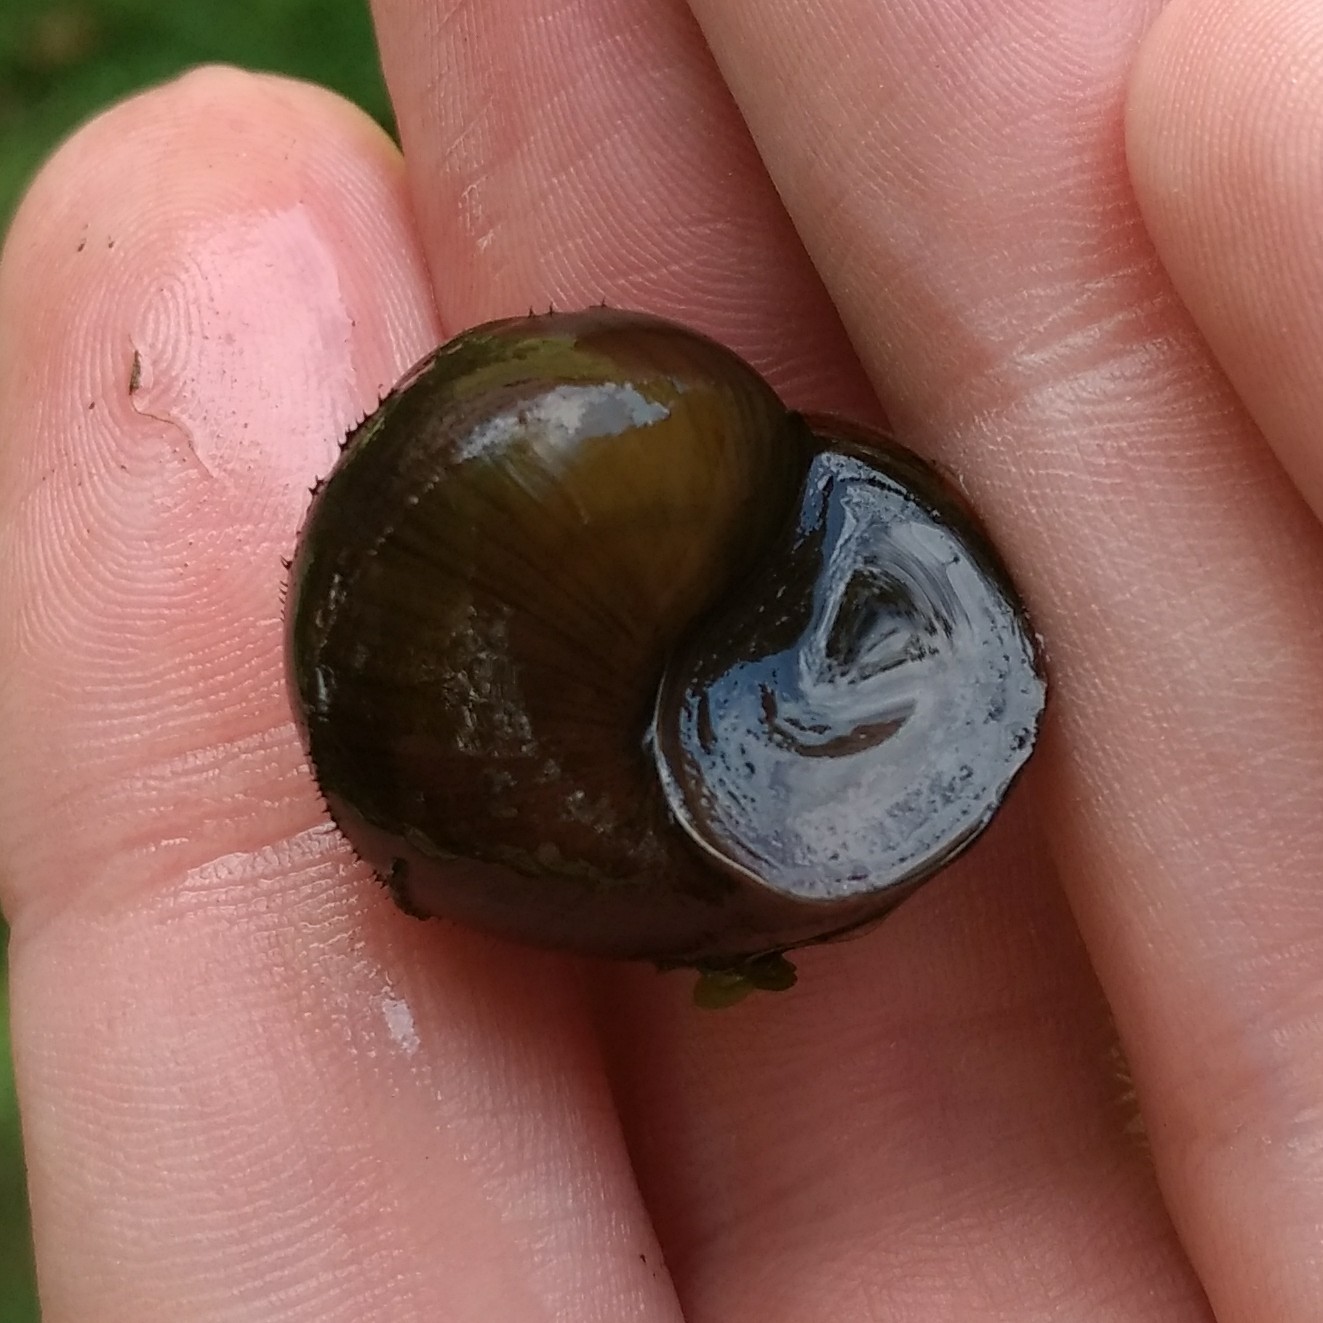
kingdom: Animalia
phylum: Mollusca
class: Gastropoda
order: Architaenioglossa
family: Viviparidae
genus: Cipangopaludina
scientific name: Cipangopaludina chinensis
